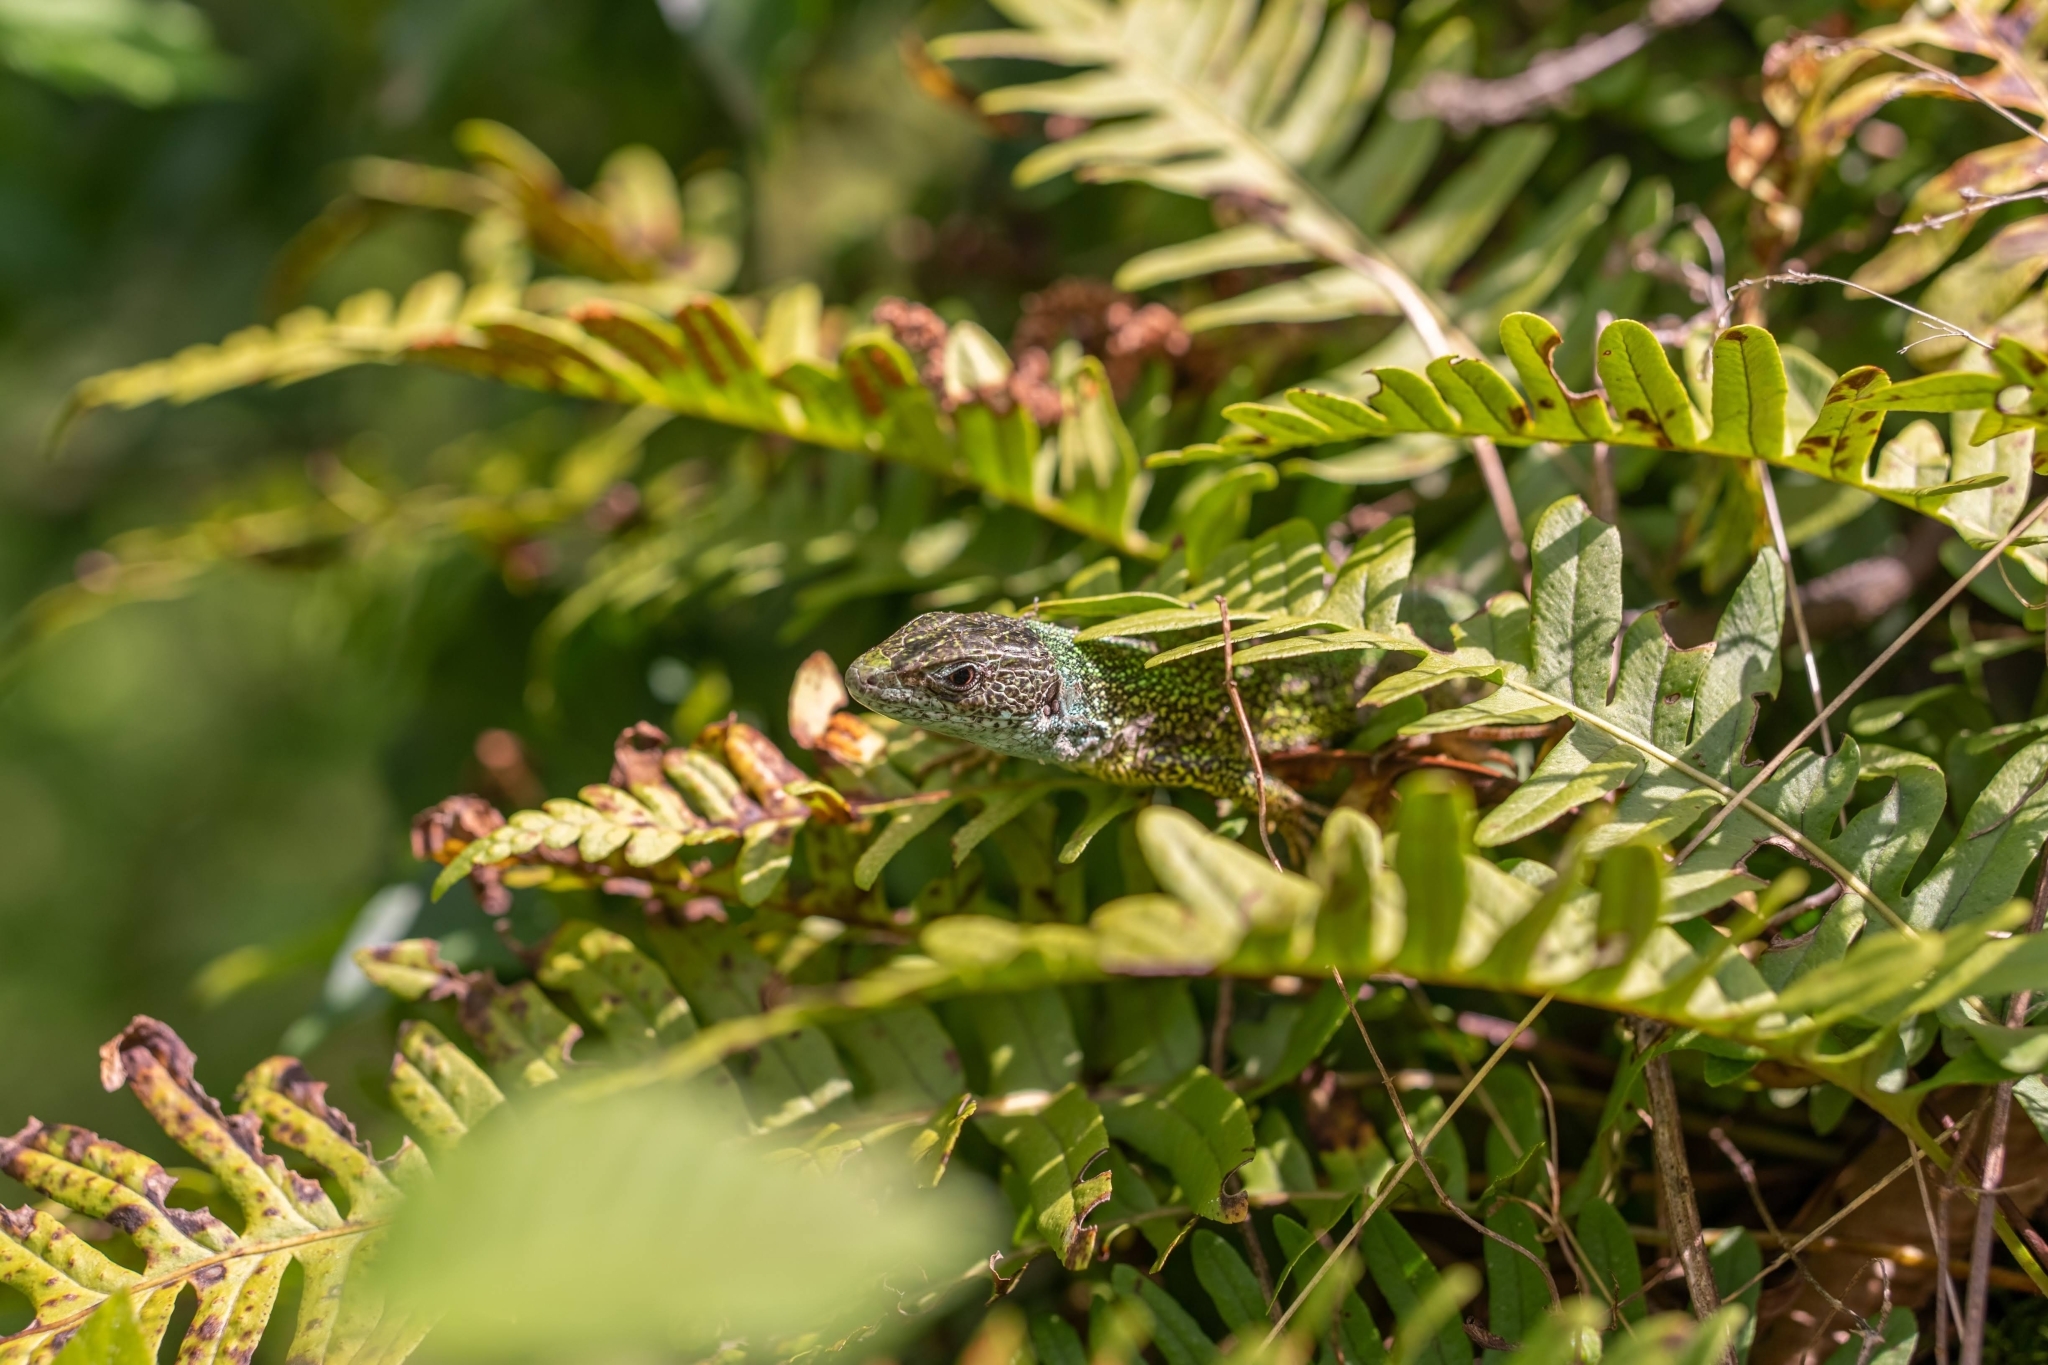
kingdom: Animalia
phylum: Chordata
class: Squamata
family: Lacertidae
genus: Lacerta
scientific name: Lacerta viridis
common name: European green lizard
